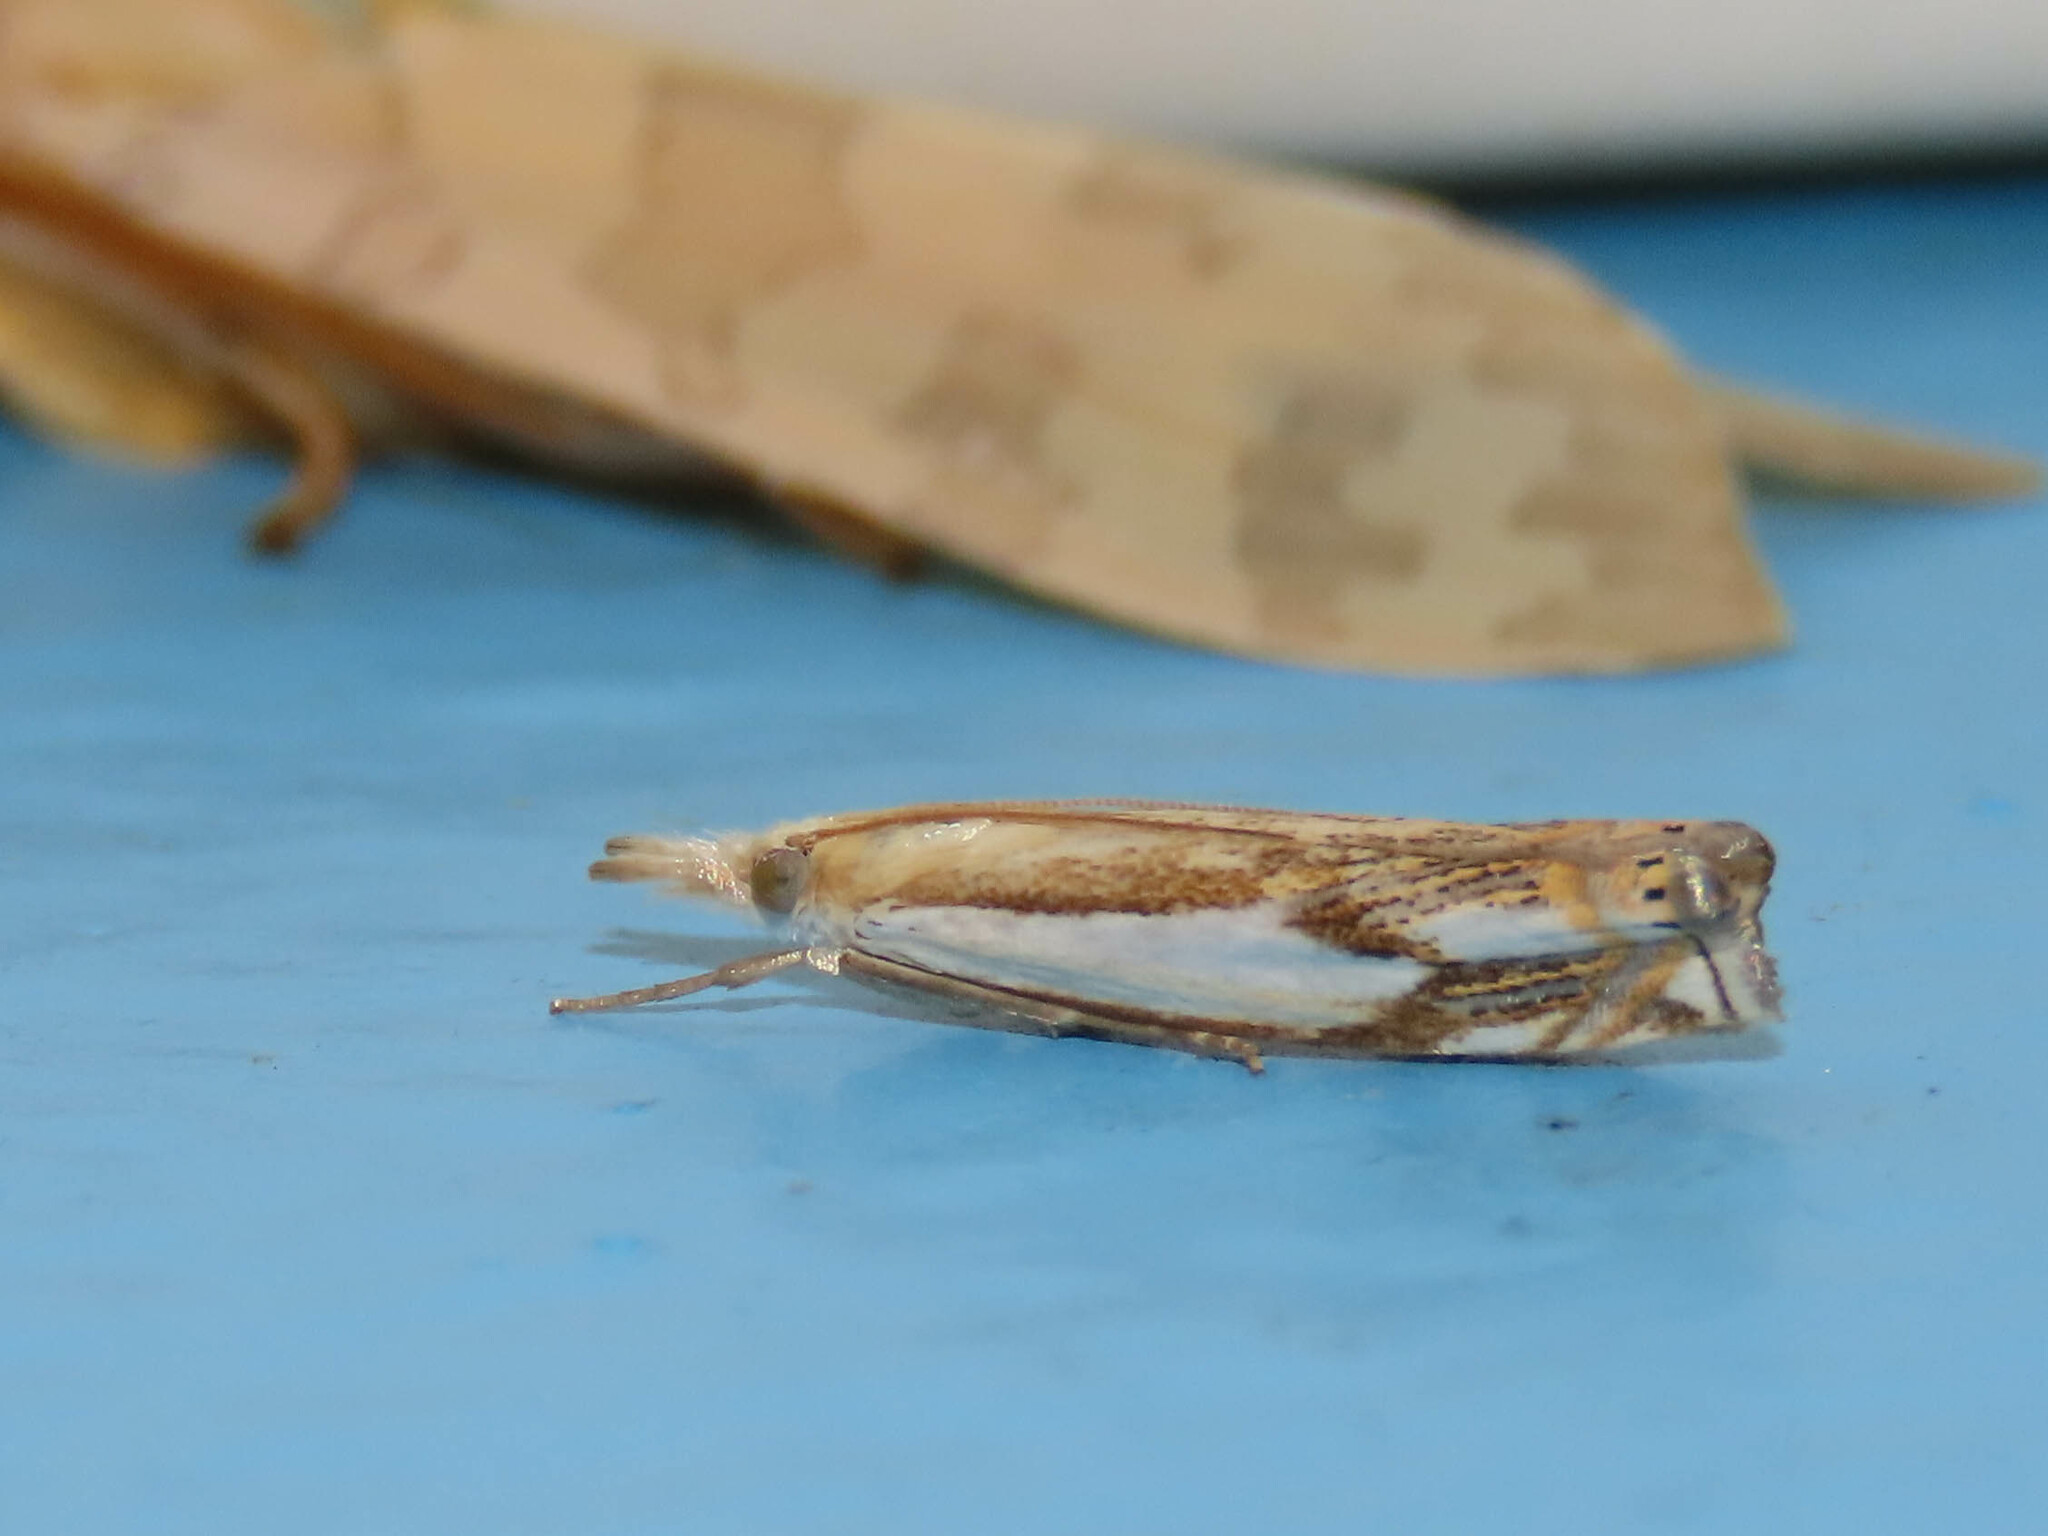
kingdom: Animalia
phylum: Arthropoda
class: Insecta
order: Lepidoptera
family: Crambidae
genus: Crambus
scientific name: Crambus agitatellus
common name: Double-banded grass-veneer
